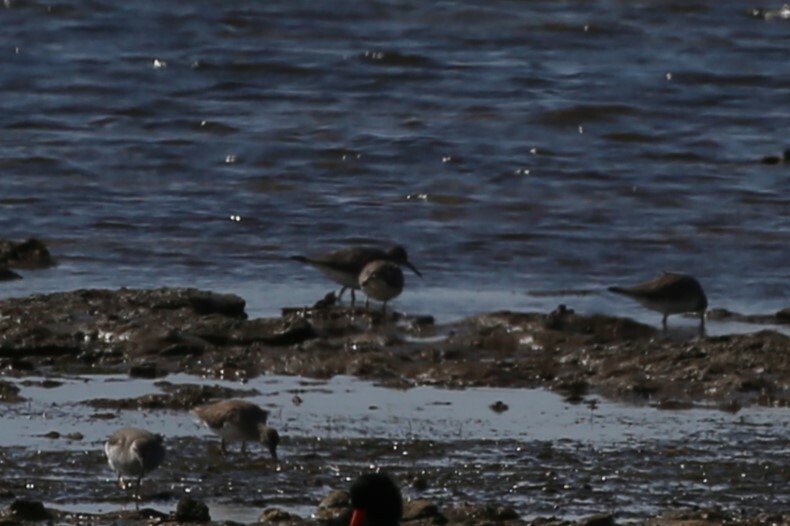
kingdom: Animalia
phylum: Chordata
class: Aves
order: Charadriiformes
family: Scolopacidae
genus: Tringa
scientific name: Tringa brevipes
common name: Grey-tailed tattler
